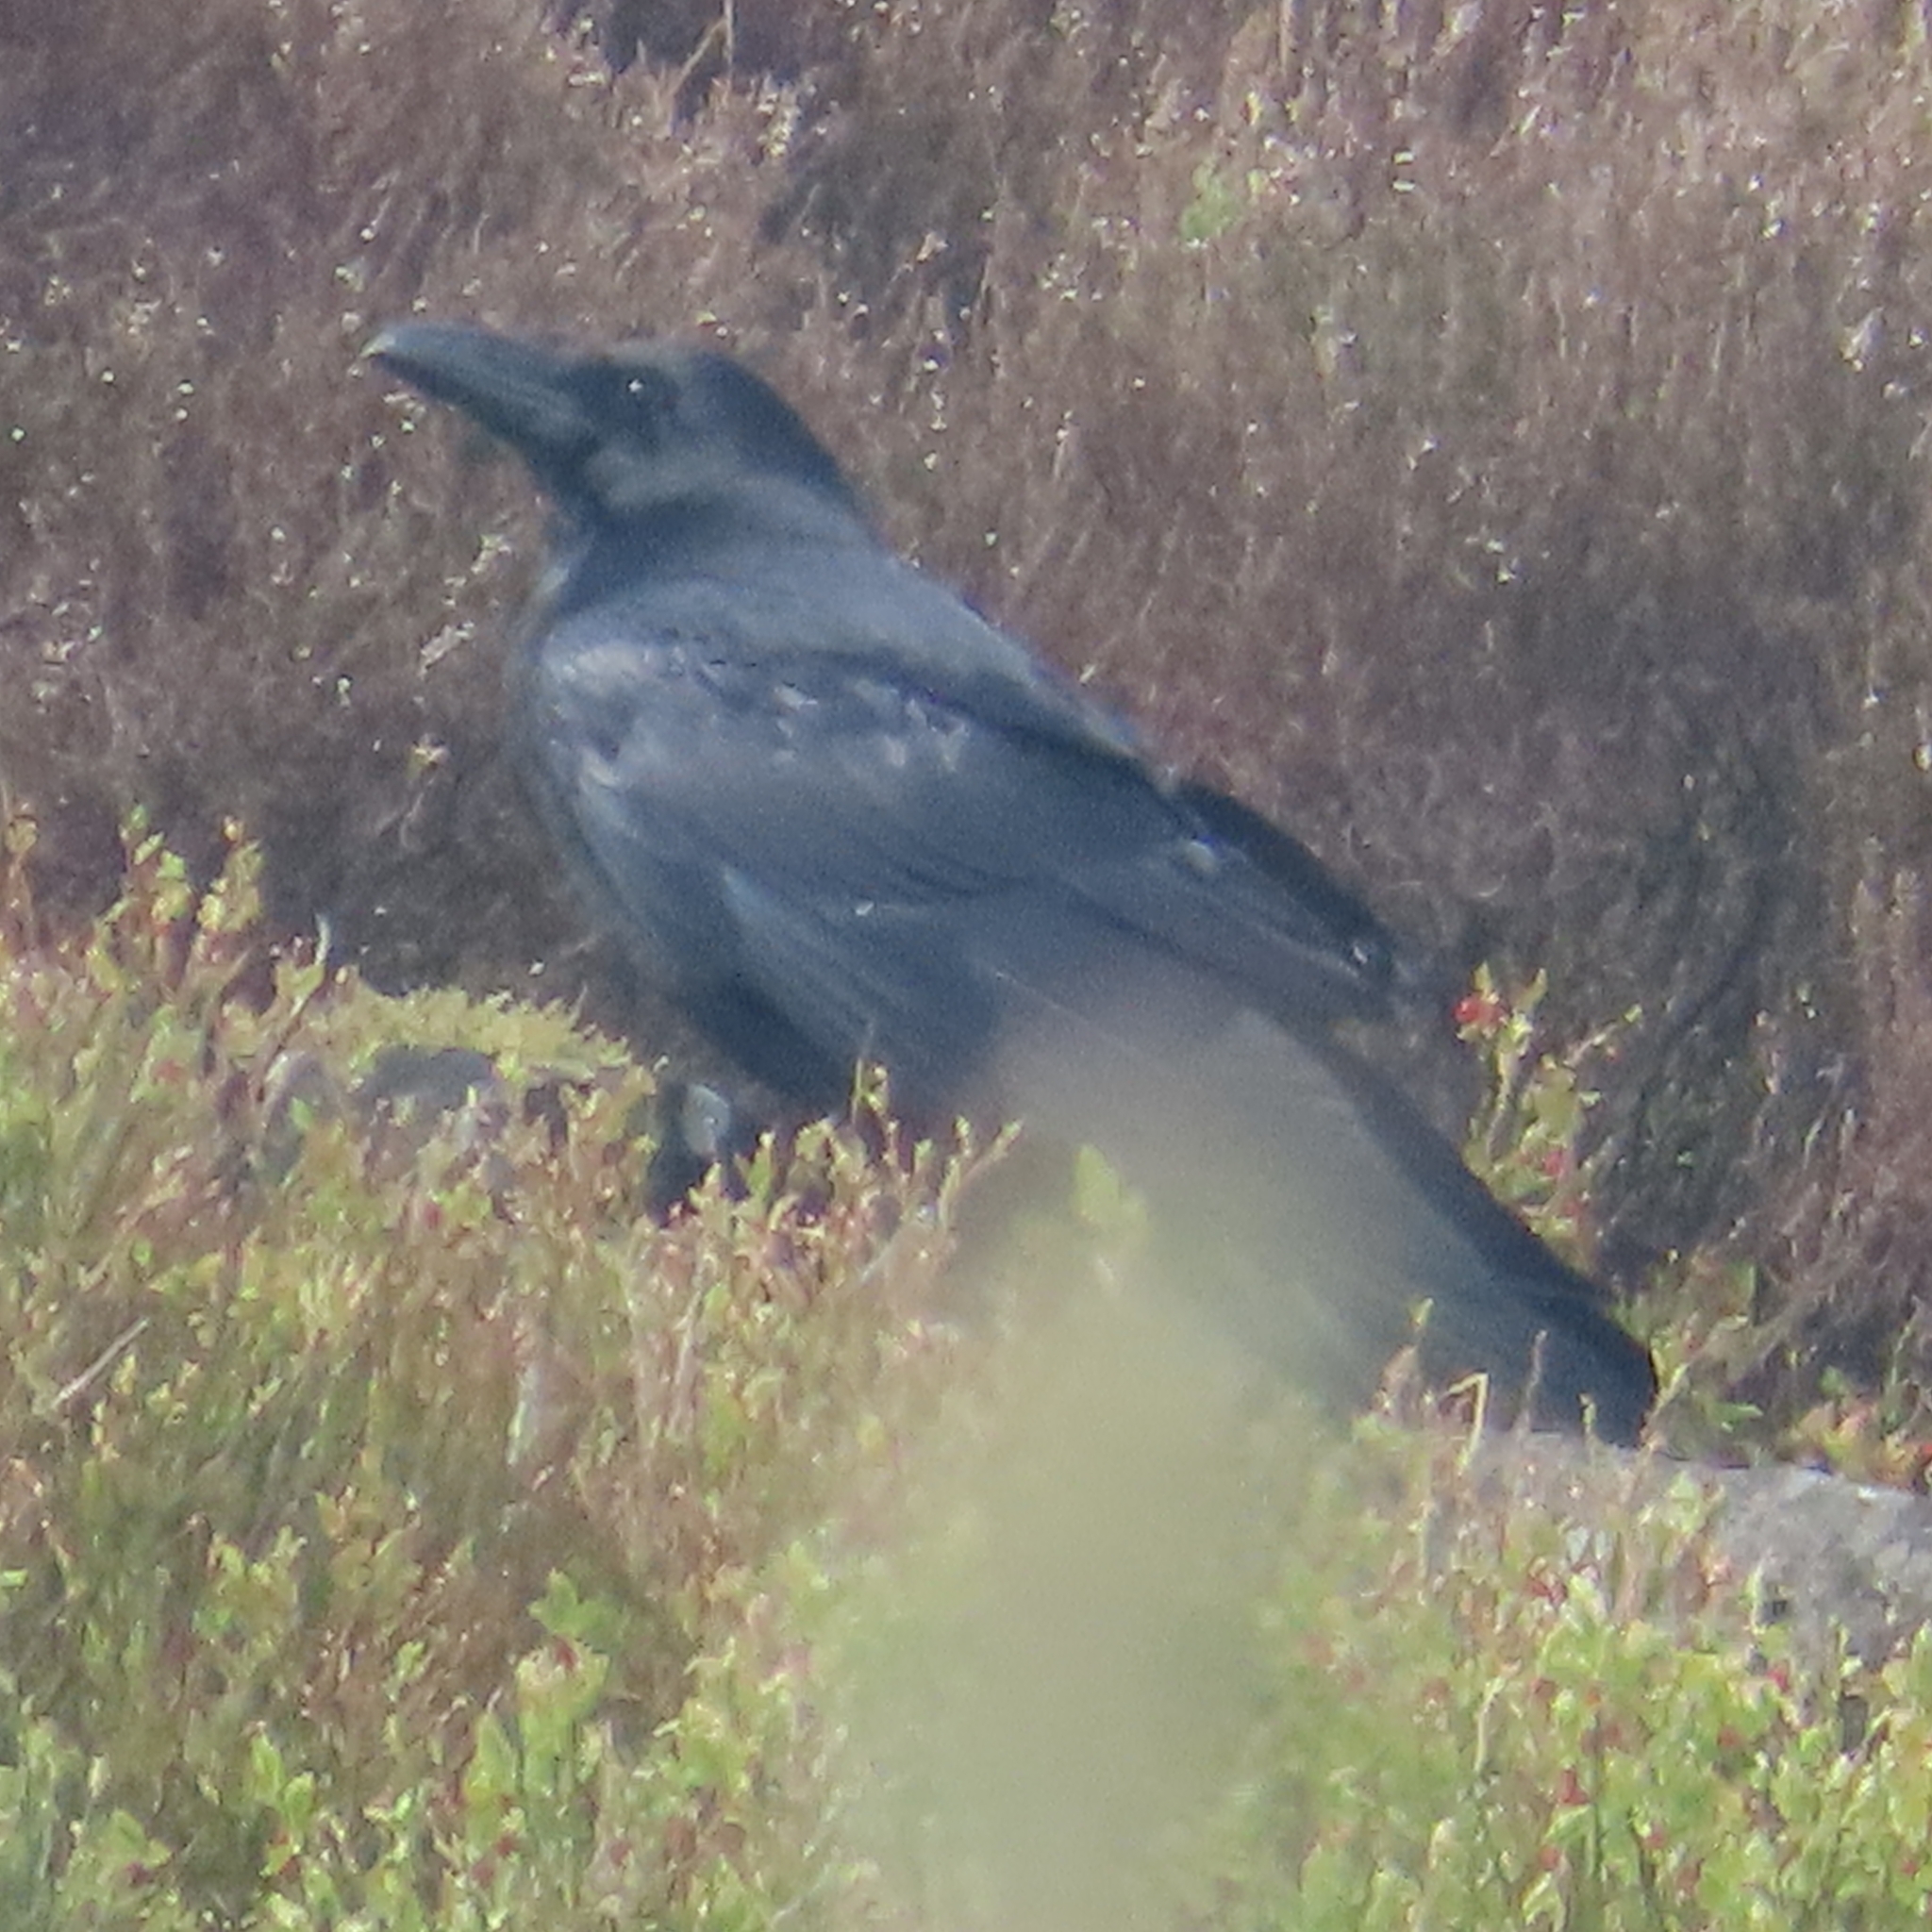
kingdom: Animalia
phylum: Chordata
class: Aves
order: Passeriformes
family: Corvidae
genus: Corvus
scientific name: Corvus corax
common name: Common raven
